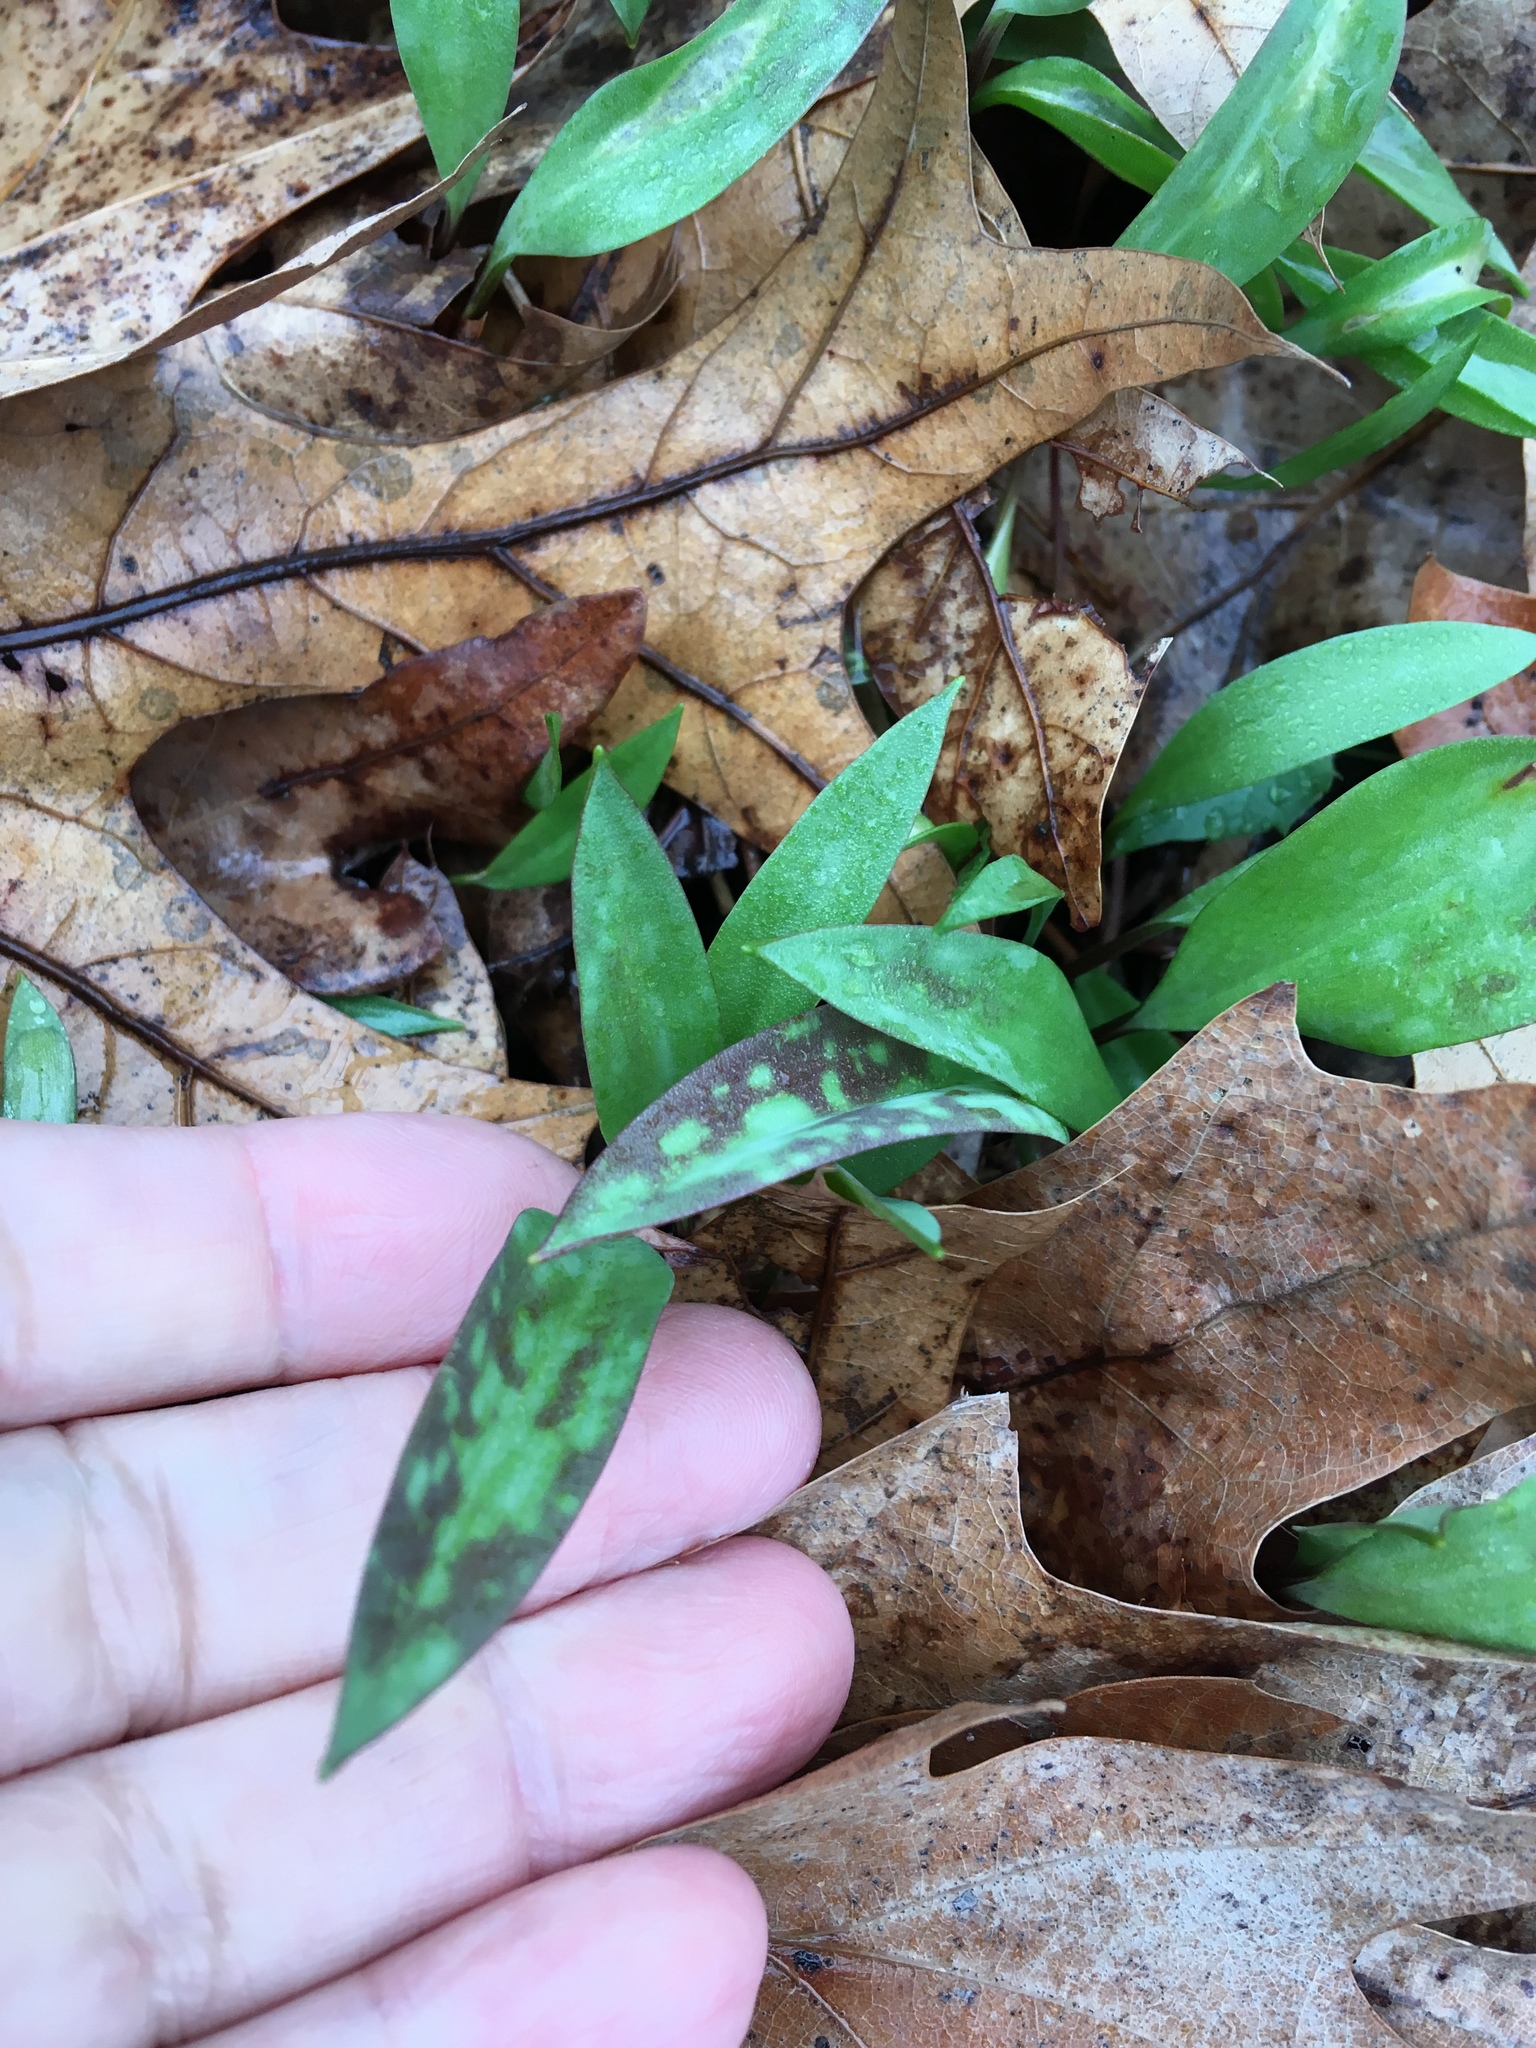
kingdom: Plantae
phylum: Tracheophyta
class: Liliopsida
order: Liliales
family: Liliaceae
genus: Erythronium
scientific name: Erythronium americanum
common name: Yellow adder's-tongue
